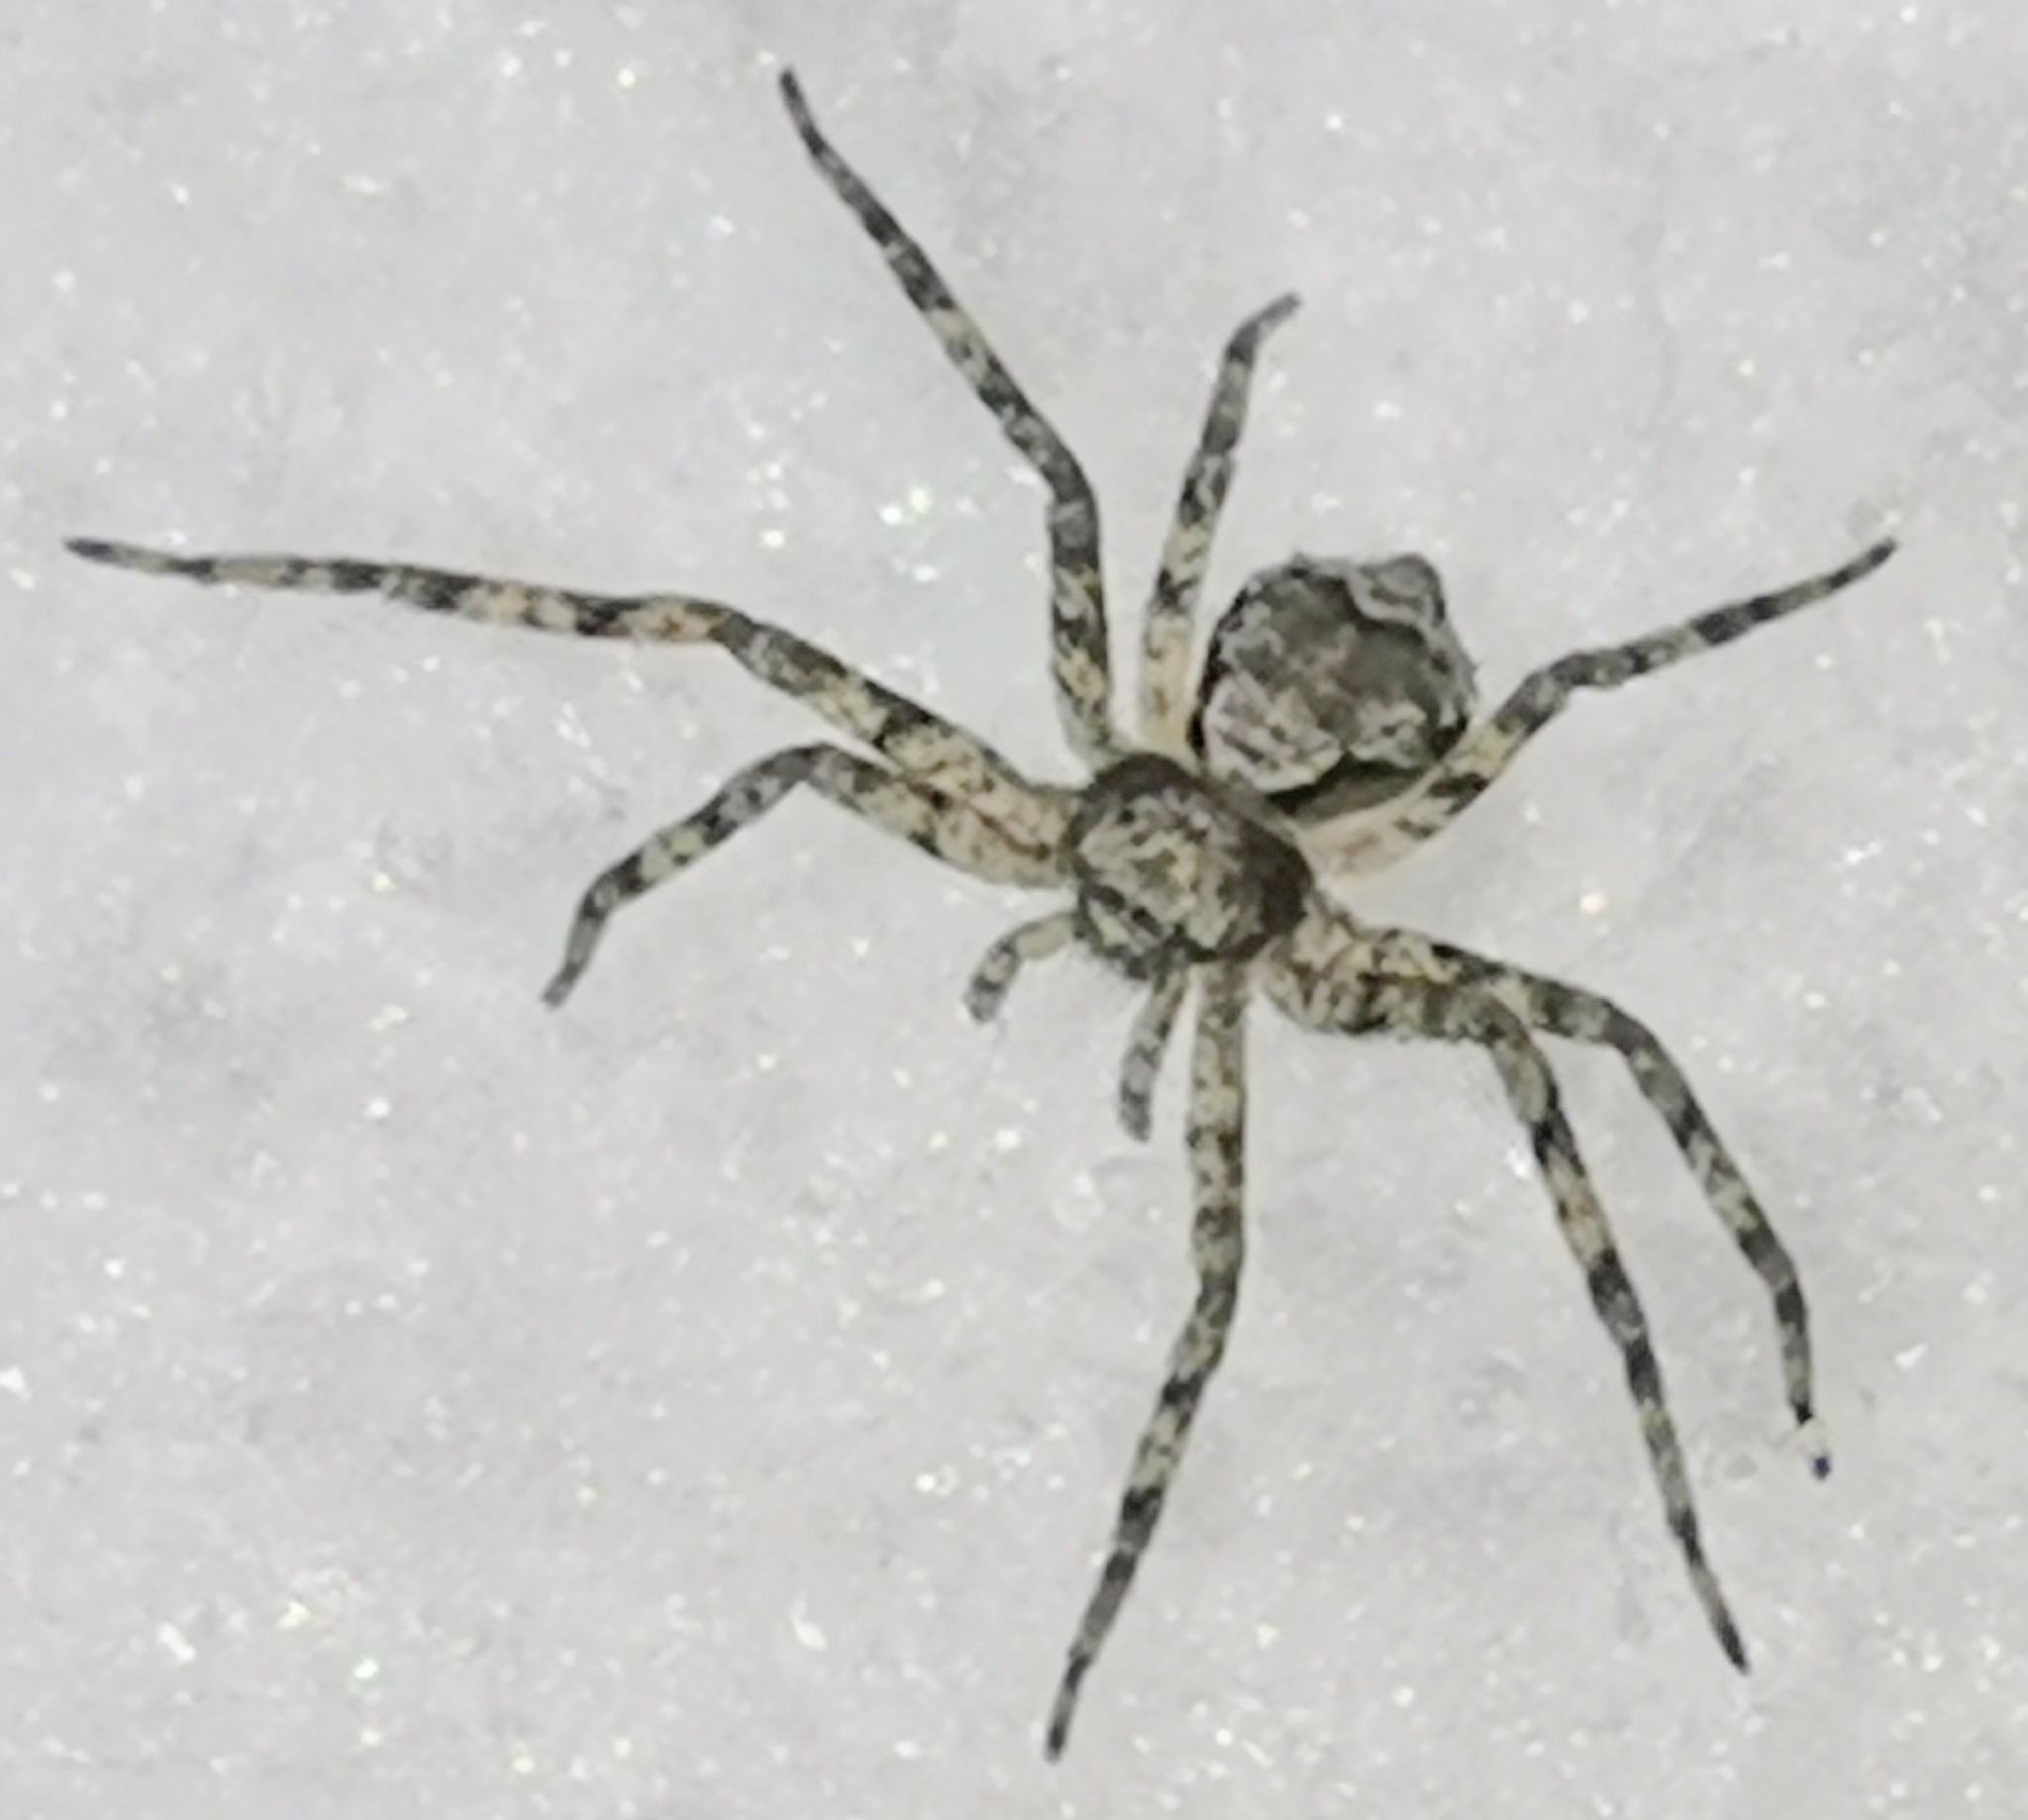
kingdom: Animalia
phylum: Arthropoda
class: Arachnida
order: Araneae
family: Philodromidae
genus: Philodromus
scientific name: Philodromus poecilus
